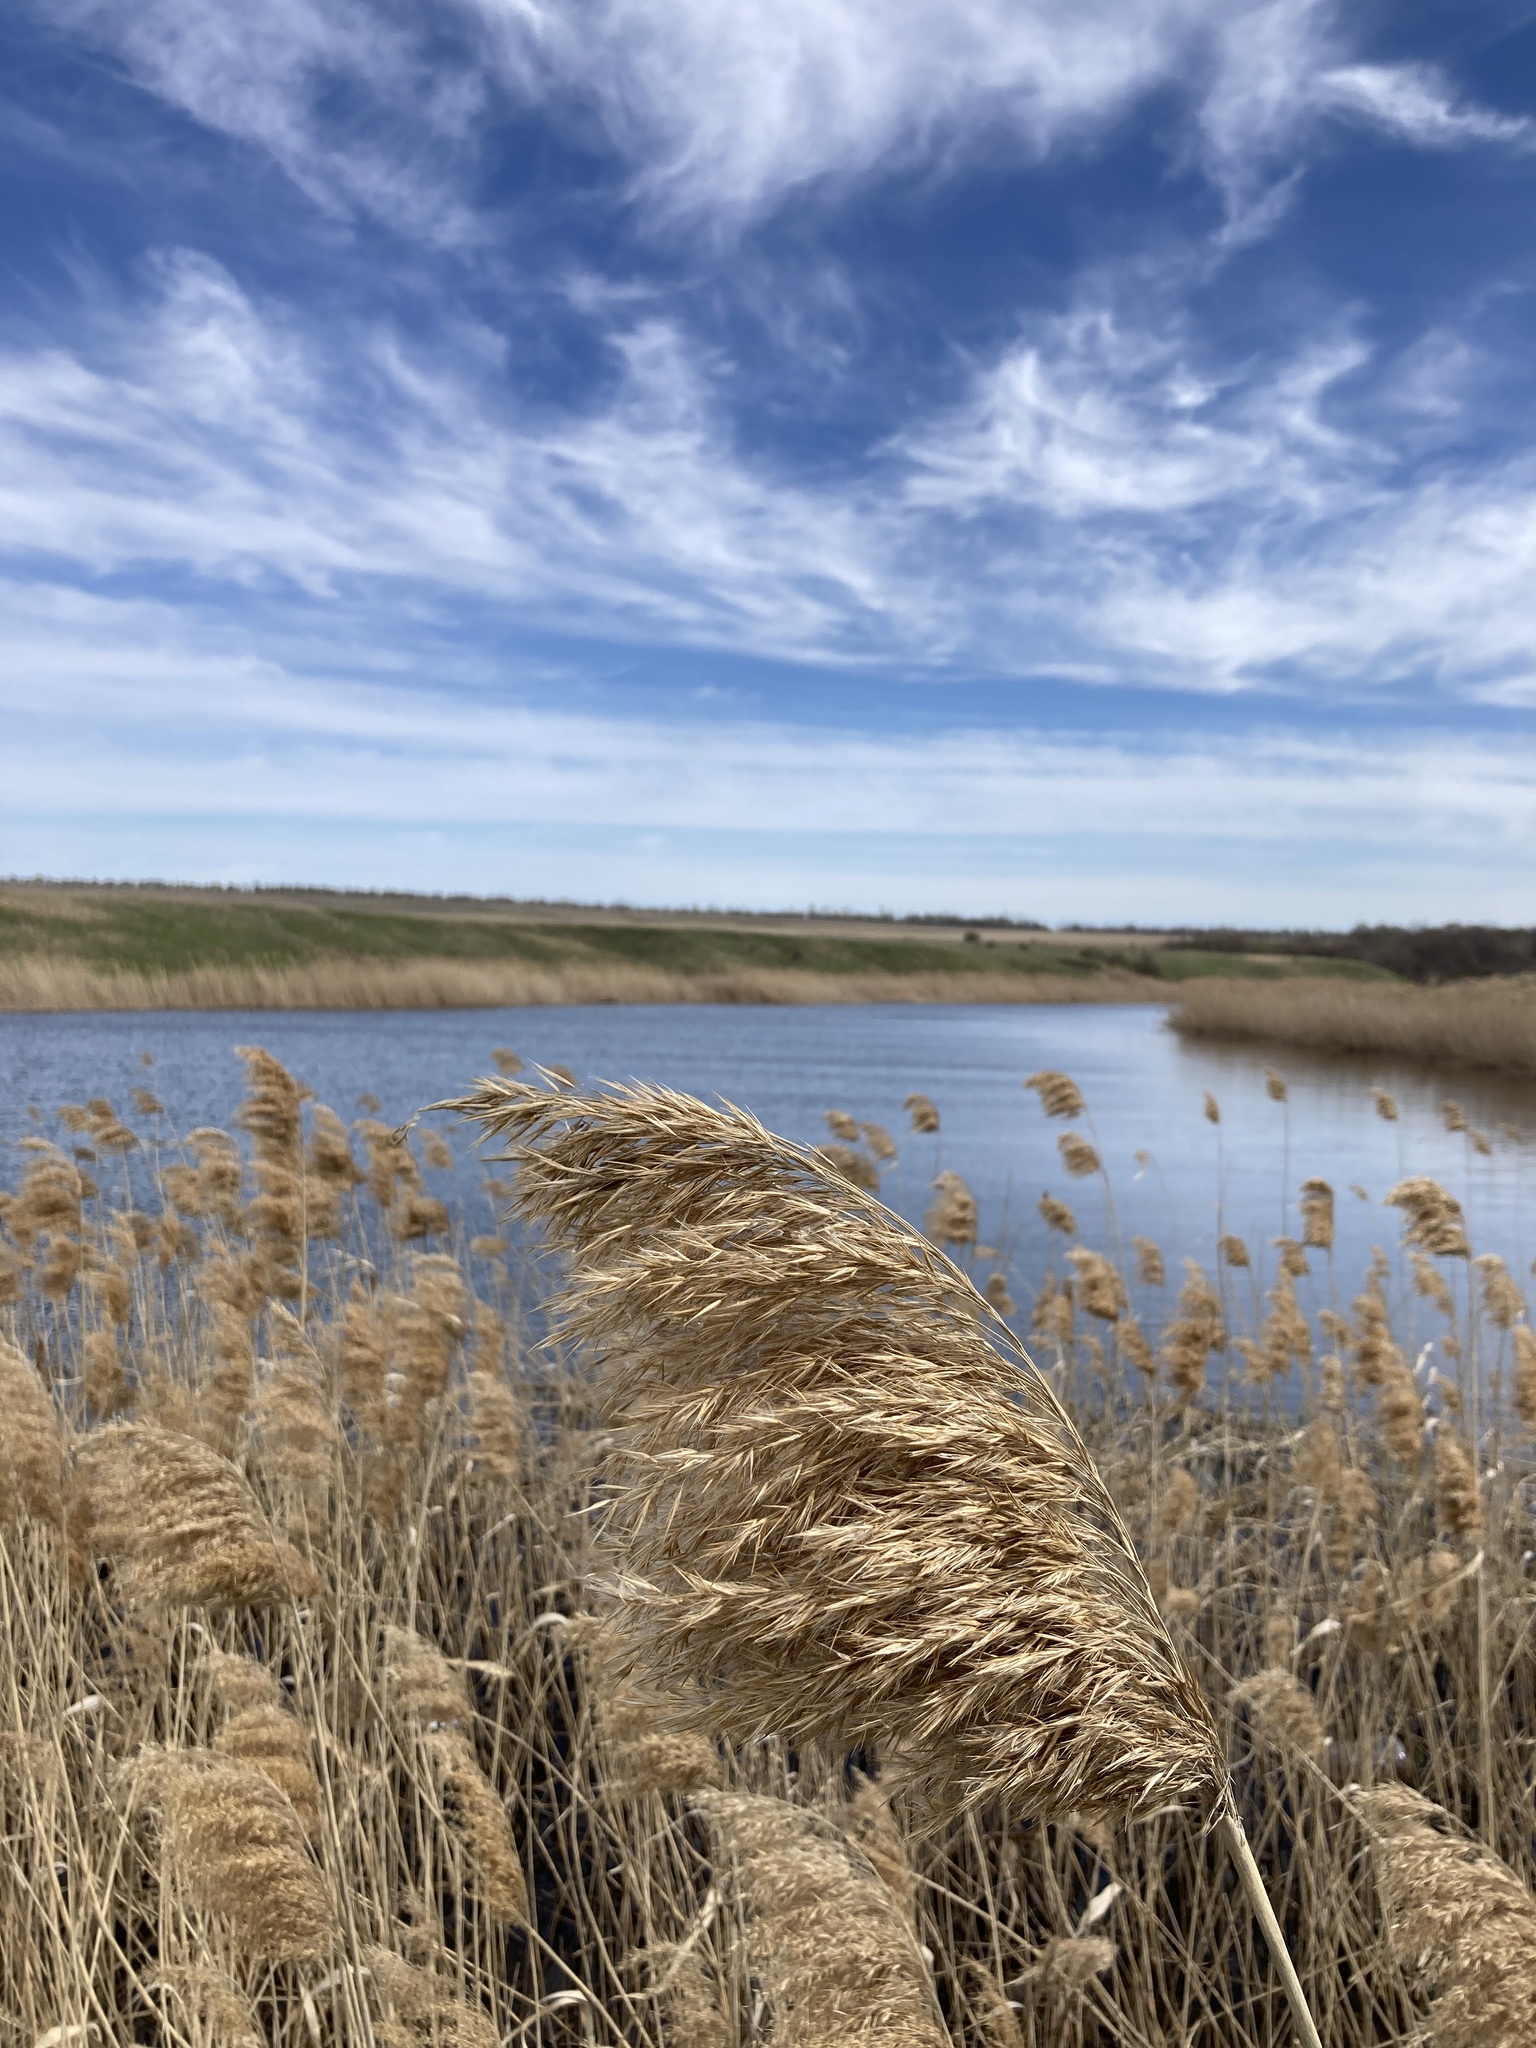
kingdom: Plantae
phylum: Tracheophyta
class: Liliopsida
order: Poales
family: Poaceae
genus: Phragmites
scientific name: Phragmites australis
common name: Common reed
